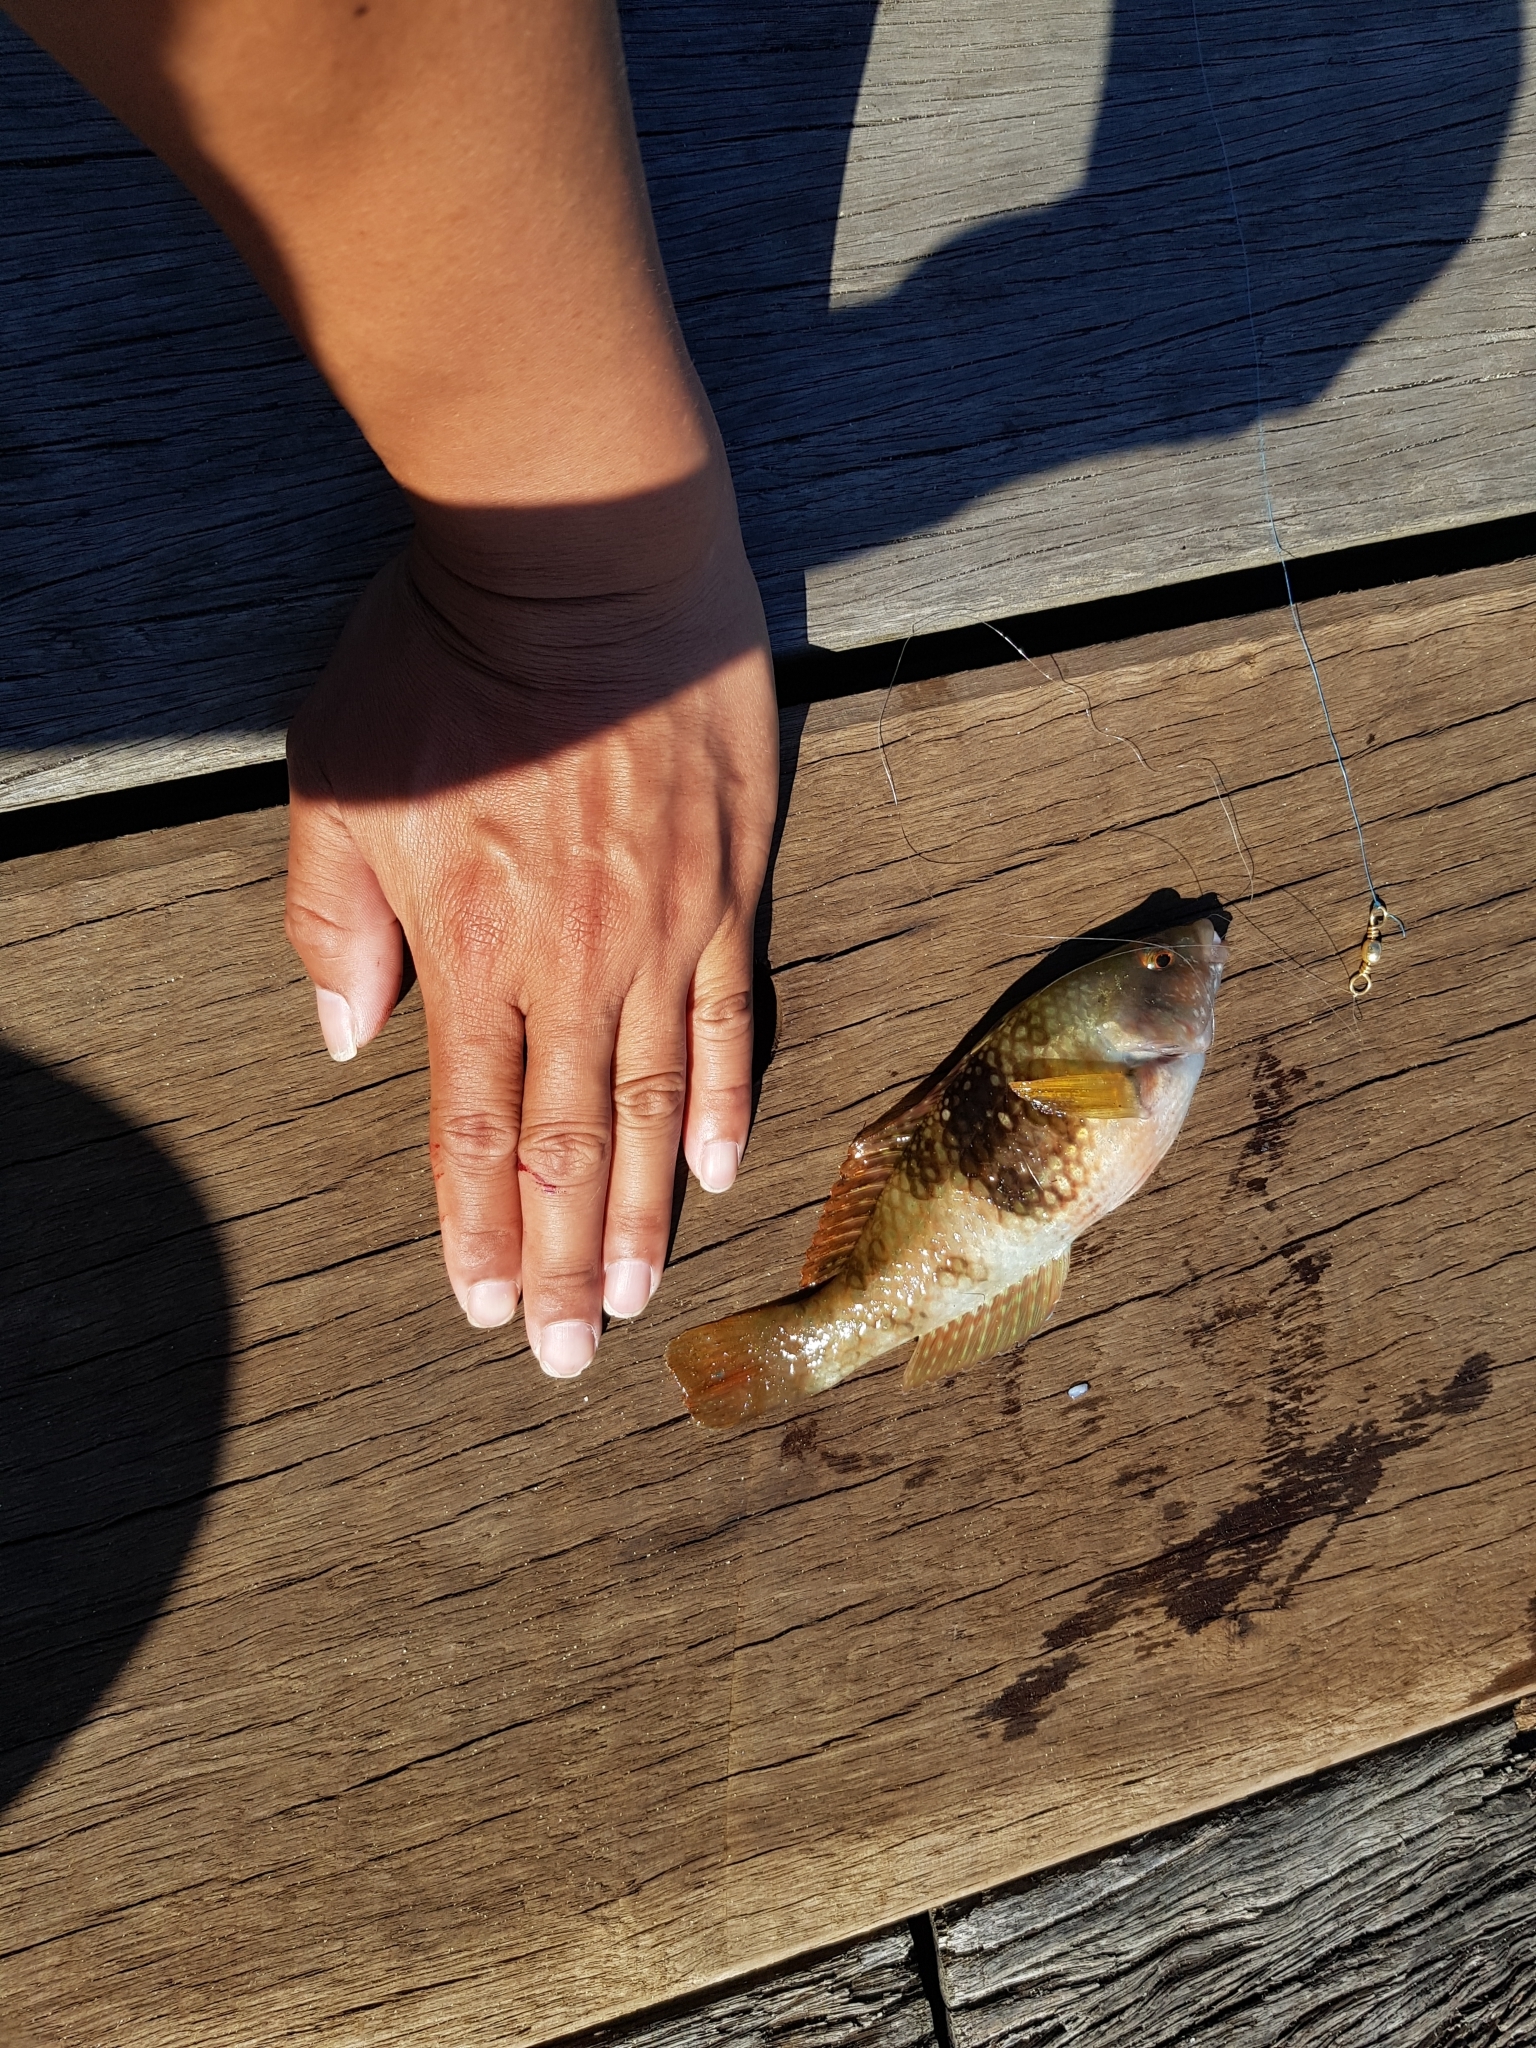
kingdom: Animalia
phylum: Chordata
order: Perciformes
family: Labridae
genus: Notolabrus
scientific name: Notolabrus tetricus
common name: Blue-throated parrotfish
